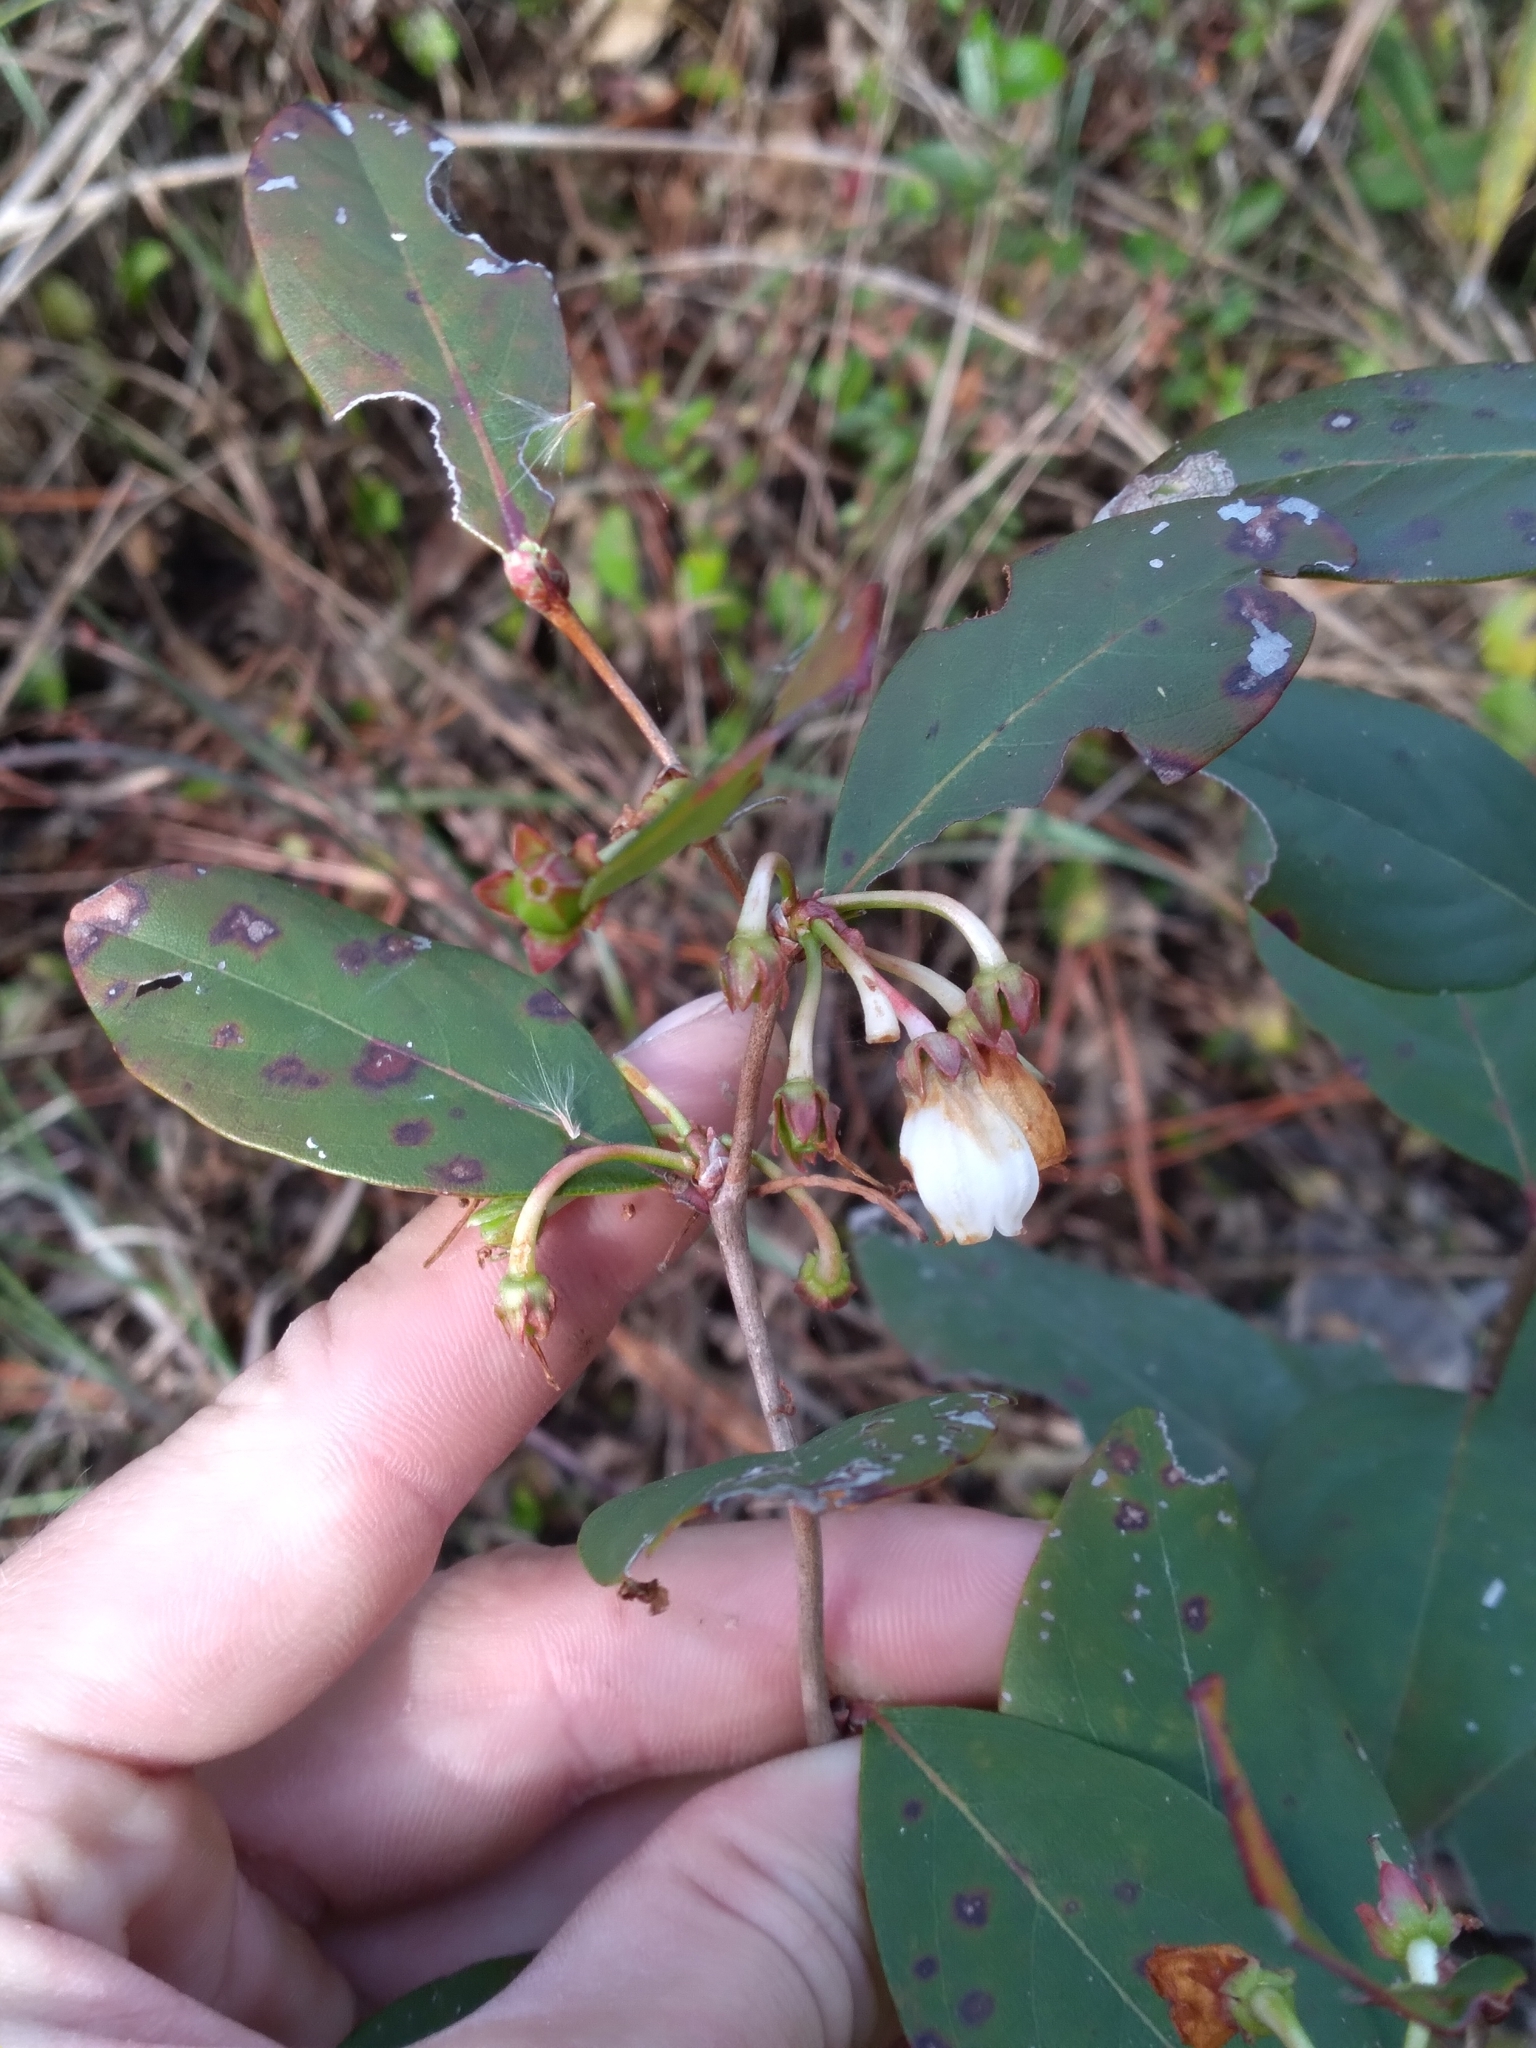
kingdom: Plantae
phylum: Tracheophyta
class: Magnoliopsida
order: Ericales
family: Ericaceae
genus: Lyonia
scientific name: Lyonia mariana
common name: Staggerbush
